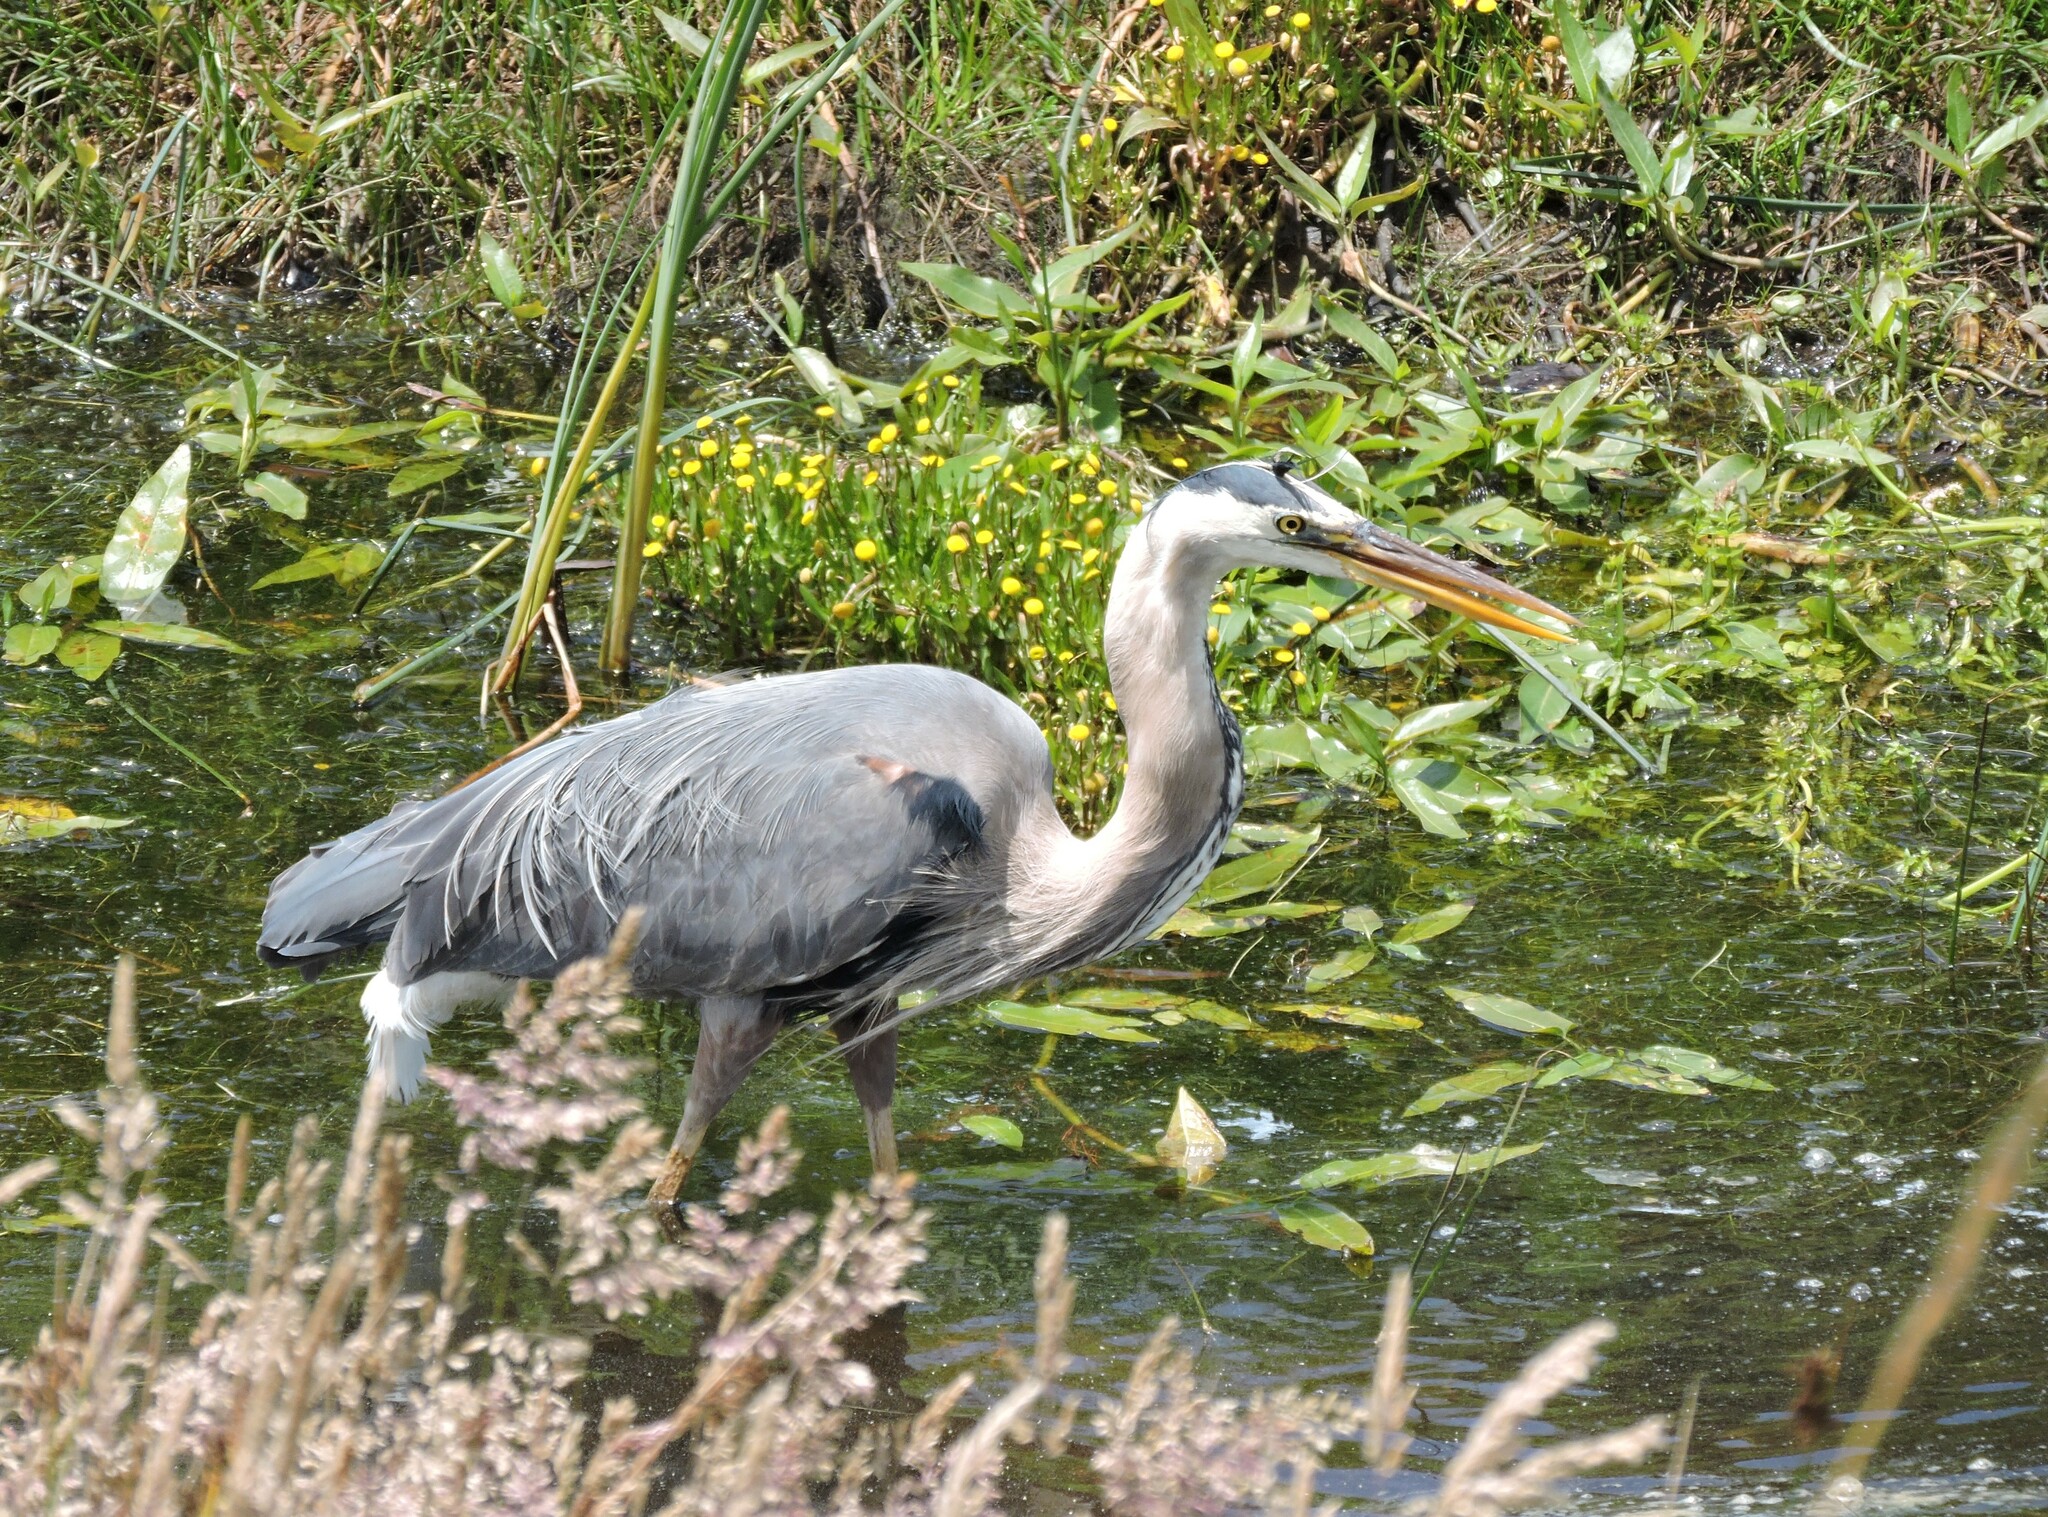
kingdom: Animalia
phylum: Chordata
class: Aves
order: Pelecaniformes
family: Ardeidae
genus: Ardea
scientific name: Ardea herodias
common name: Great blue heron
